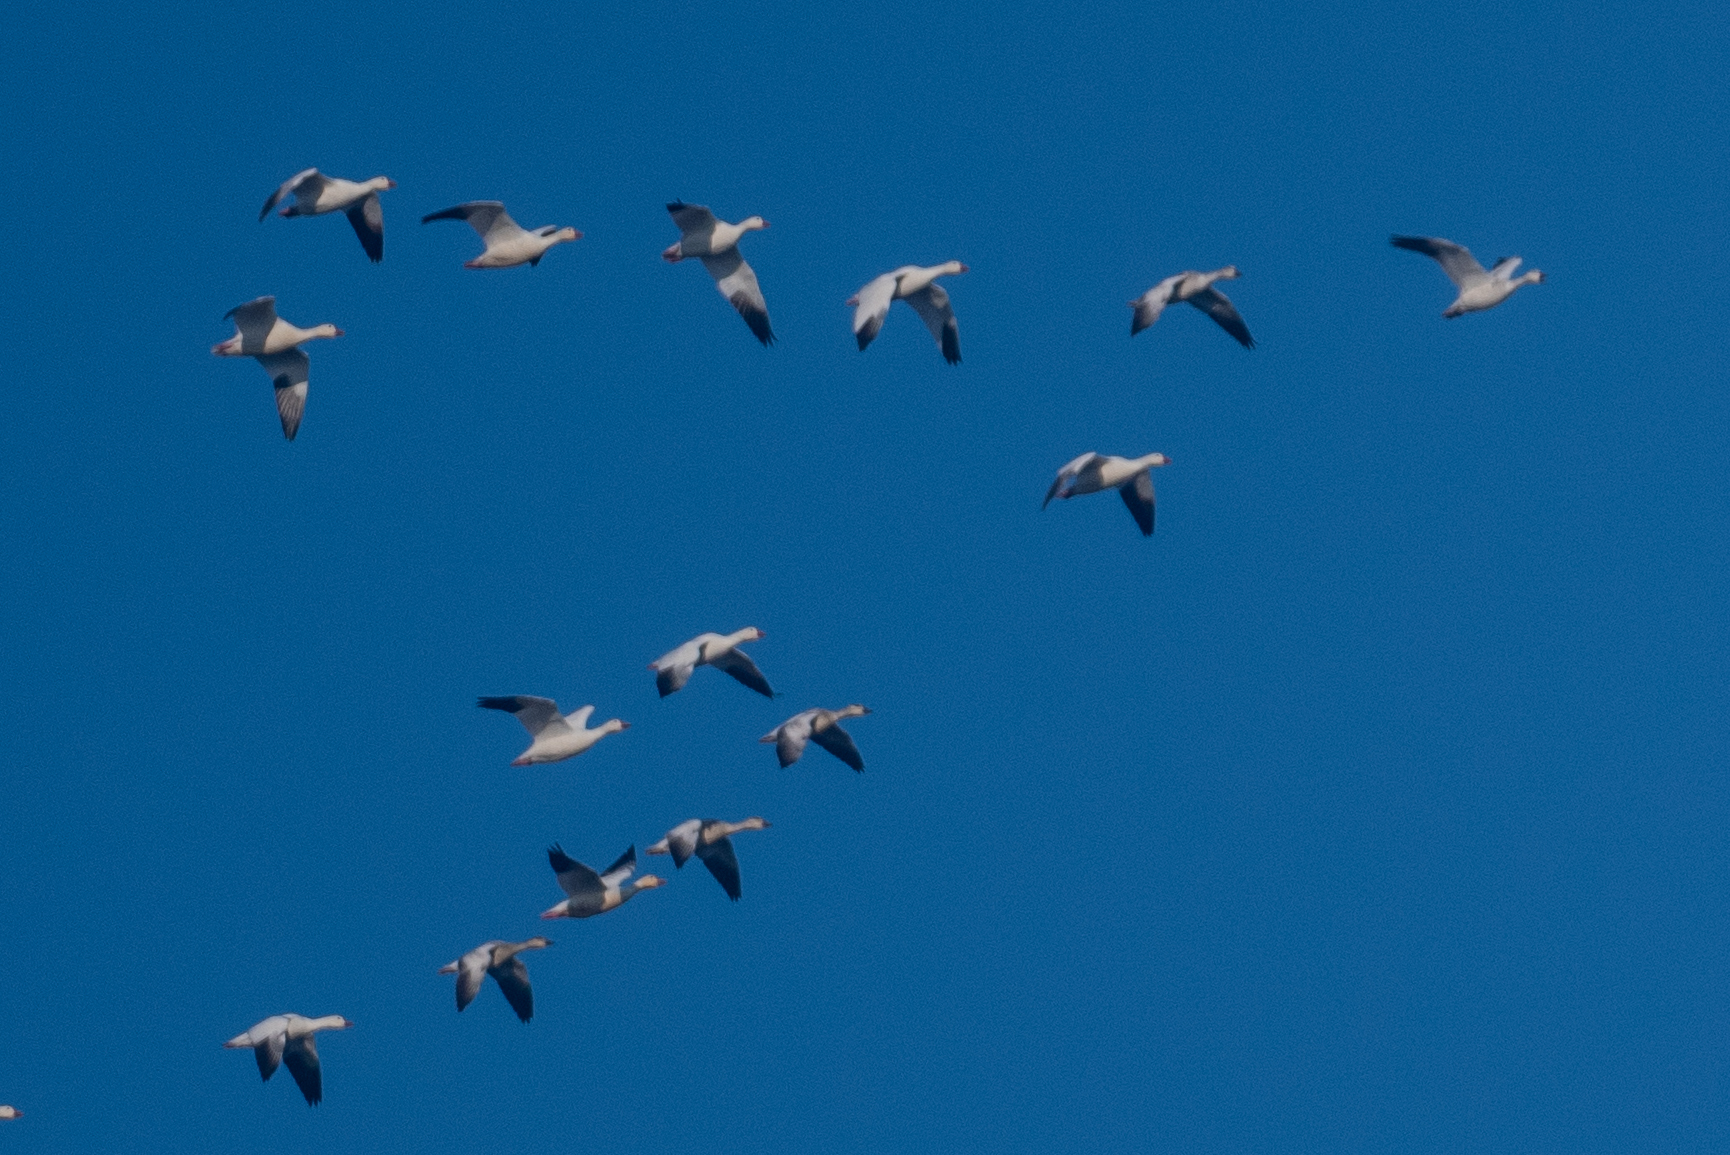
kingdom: Animalia
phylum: Chordata
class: Aves
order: Anseriformes
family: Anatidae
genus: Anser
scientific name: Anser caerulescens
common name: Snow goose
